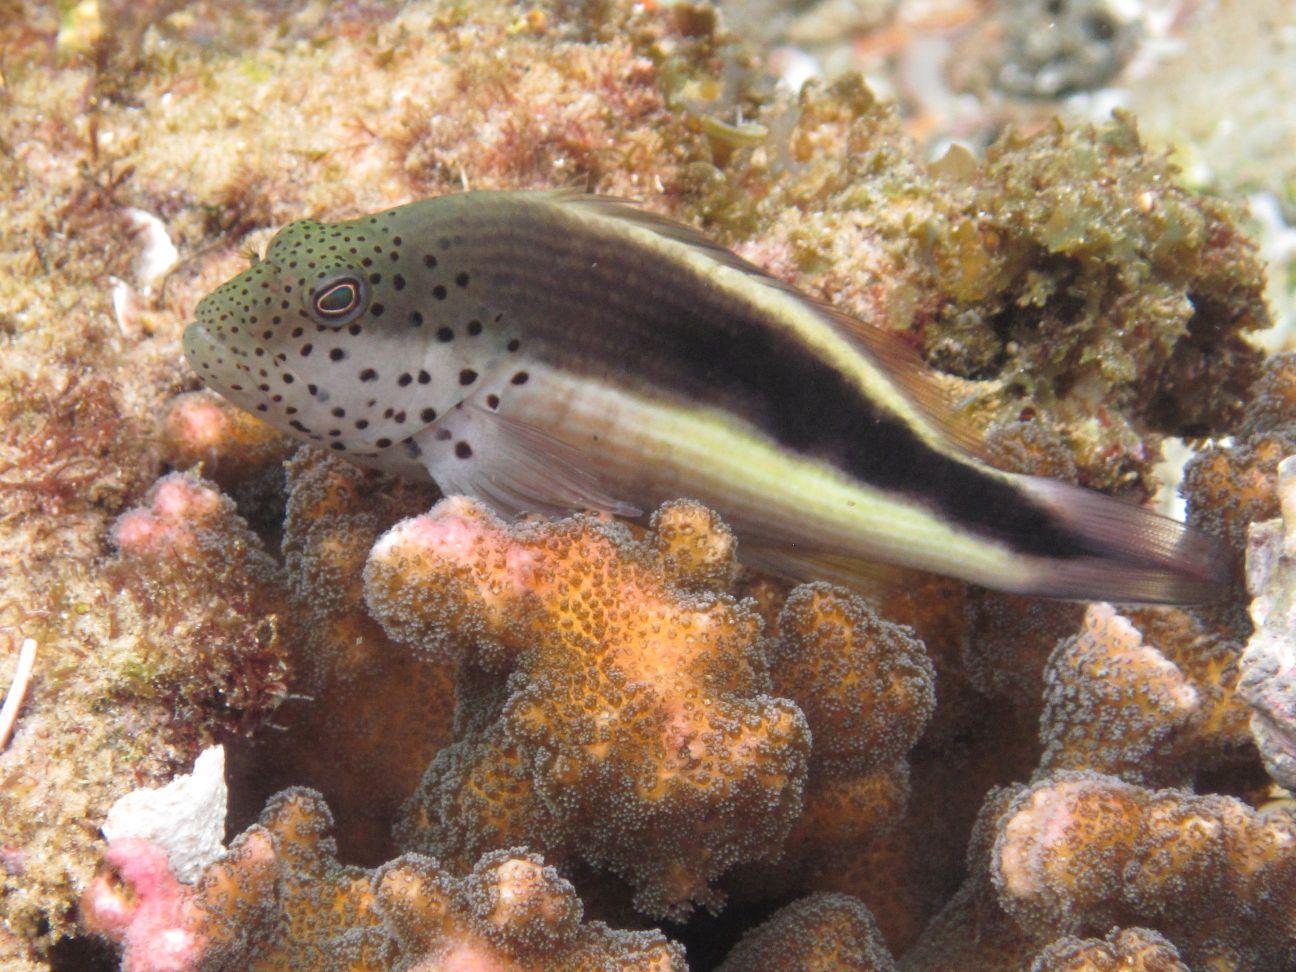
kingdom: Animalia
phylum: Chordata
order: Perciformes
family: Cirrhitidae
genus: Paracirrhites
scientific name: Paracirrhites forsteri
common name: Freckled hawkfish
